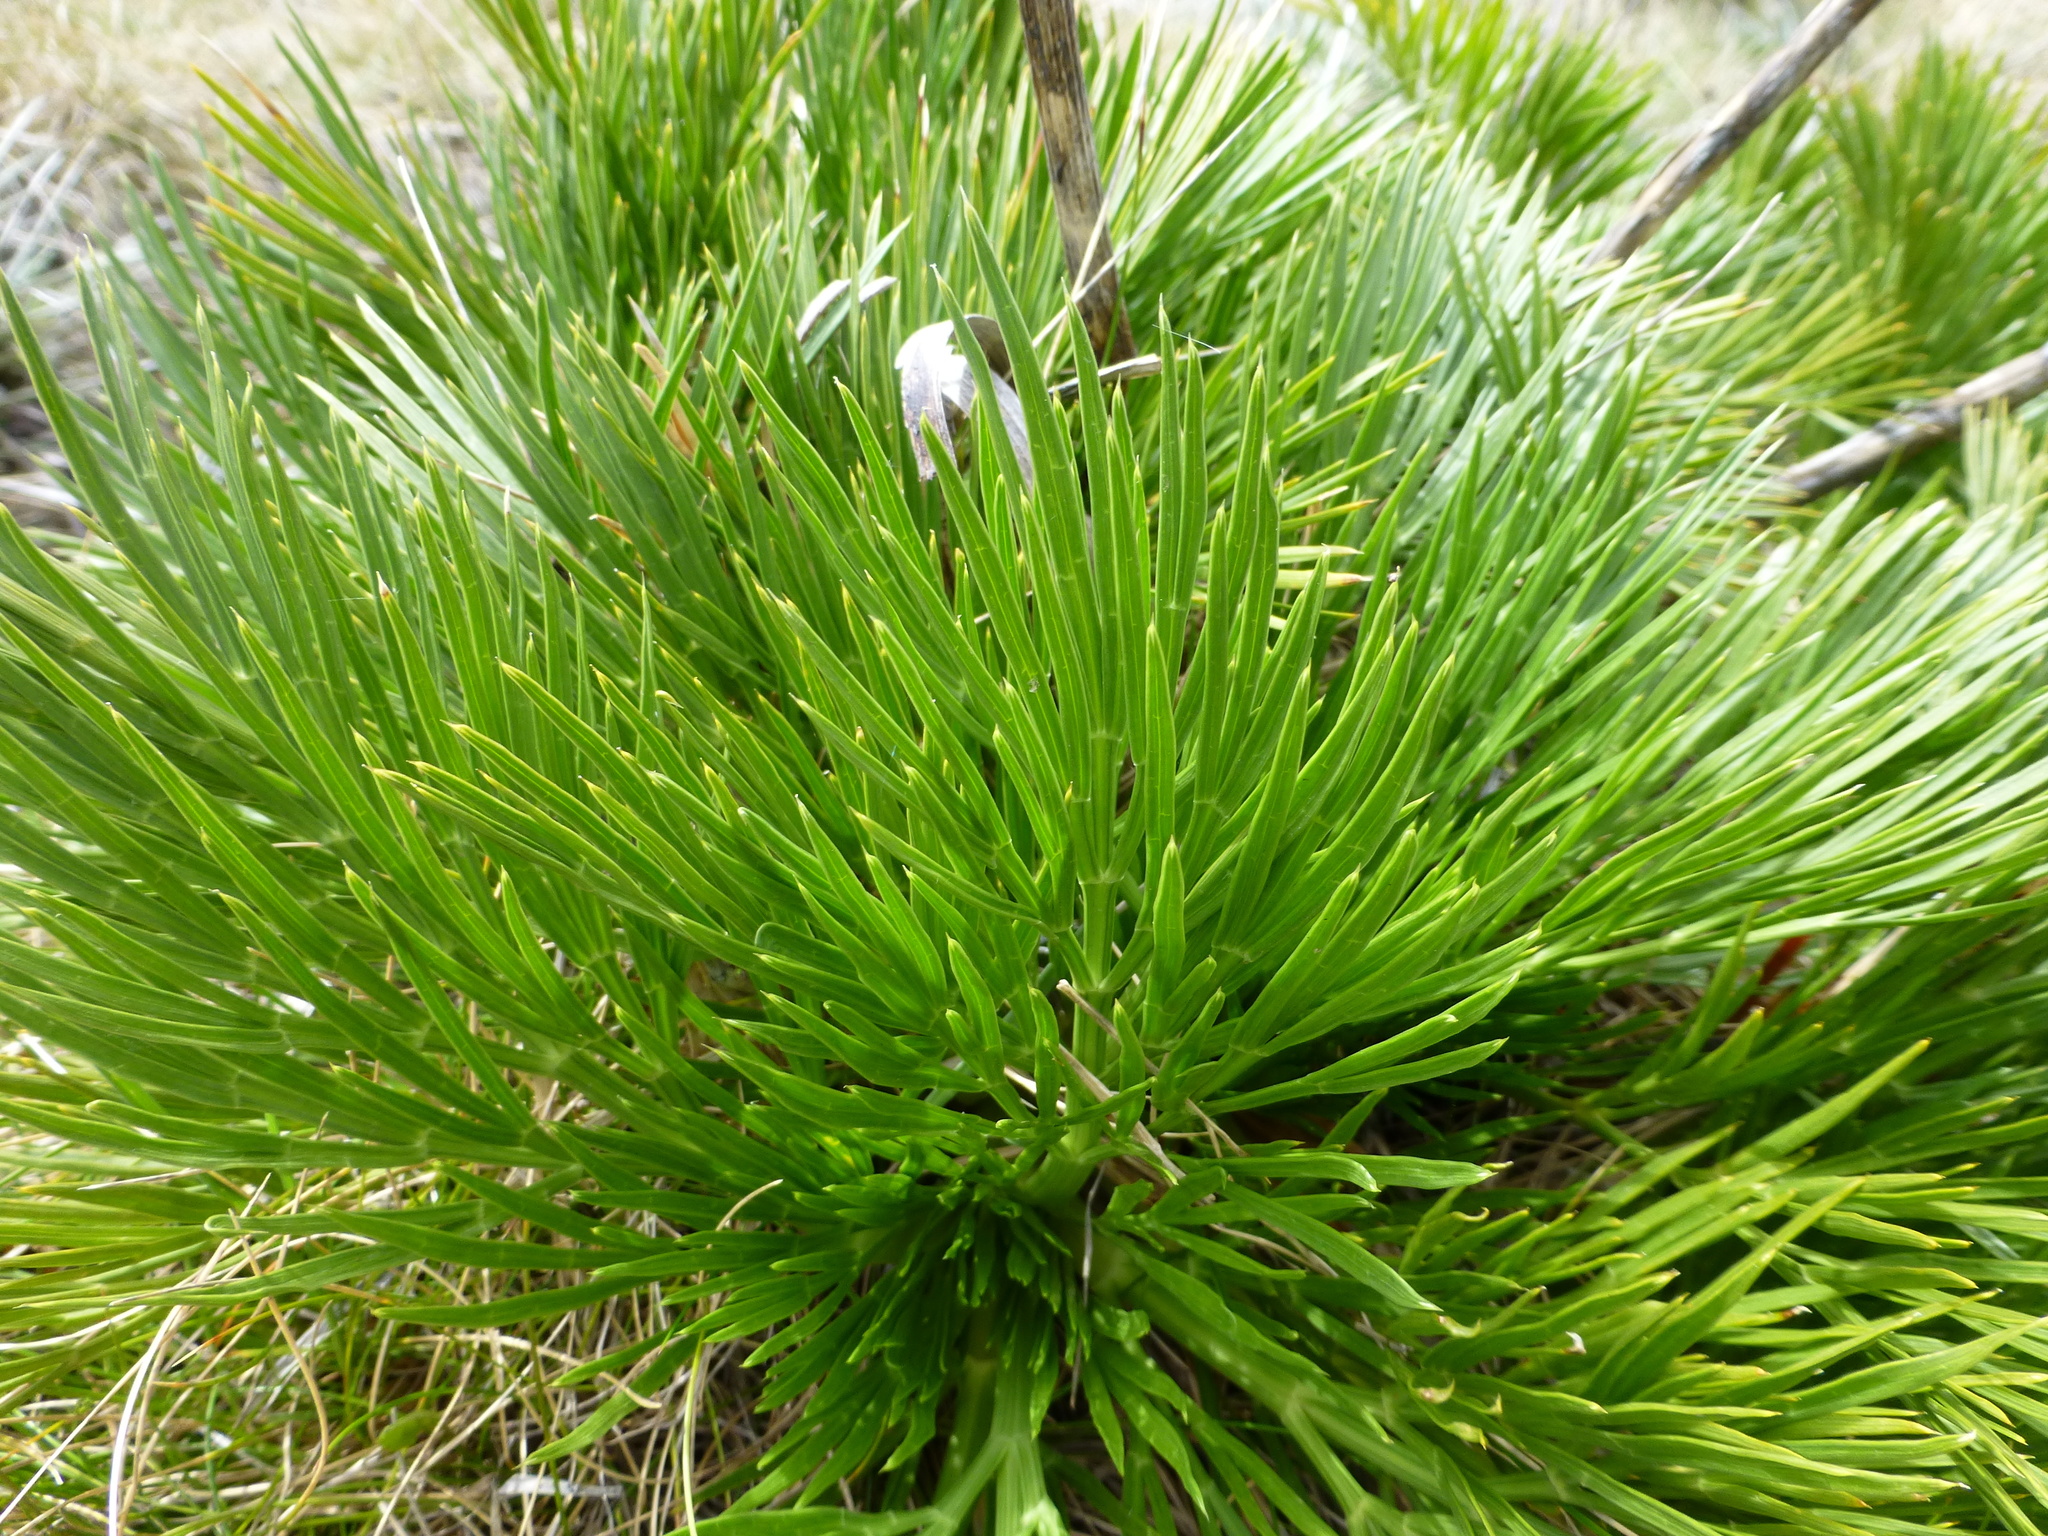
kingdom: Plantae
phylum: Tracheophyta
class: Magnoliopsida
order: Apiales
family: Apiaceae
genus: Aciphylla
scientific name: Aciphylla glacialis
